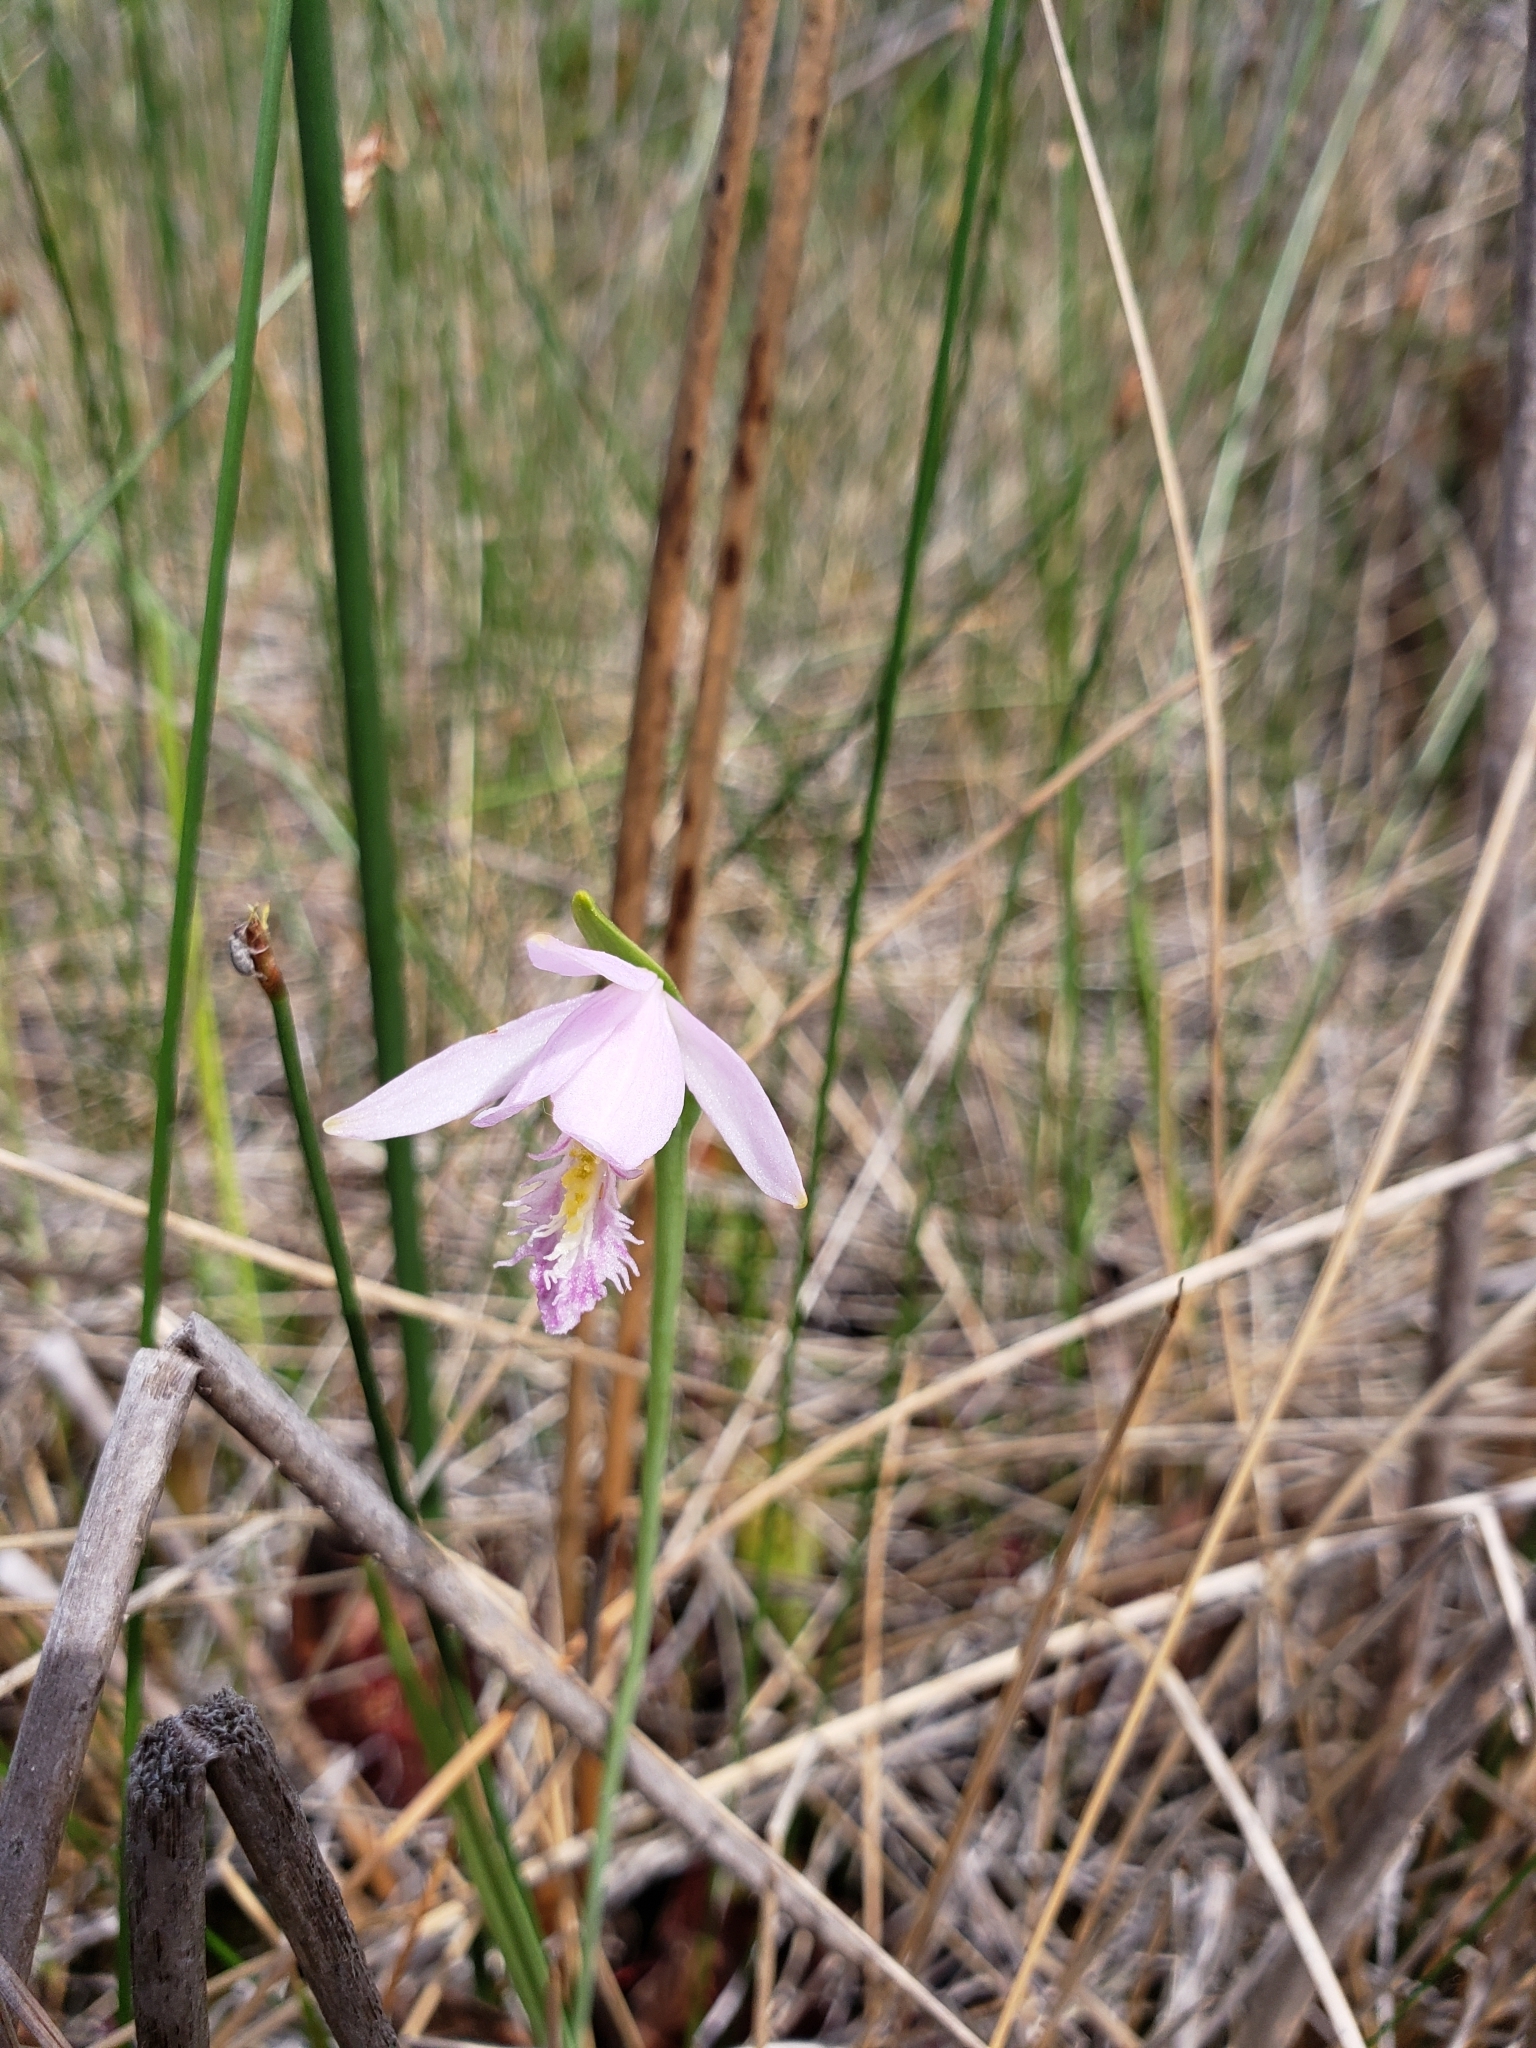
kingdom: Plantae
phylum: Tracheophyta
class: Liliopsida
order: Asparagales
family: Orchidaceae
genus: Pogonia
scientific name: Pogonia ophioglossoides
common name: Rose pogonia
